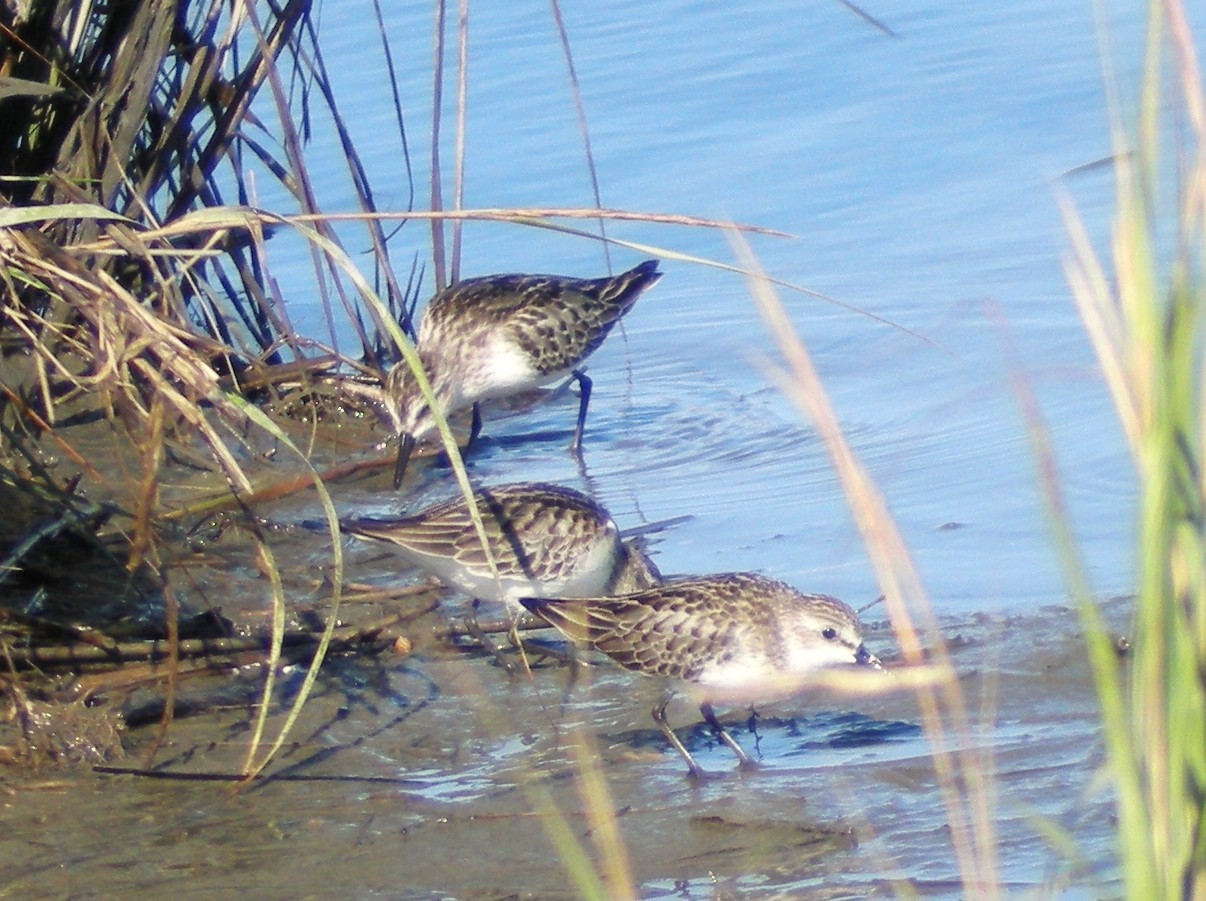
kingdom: Animalia
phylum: Chordata
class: Aves
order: Charadriiformes
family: Scolopacidae
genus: Calidris
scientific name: Calidris pusilla
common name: Semipalmated sandpiper
